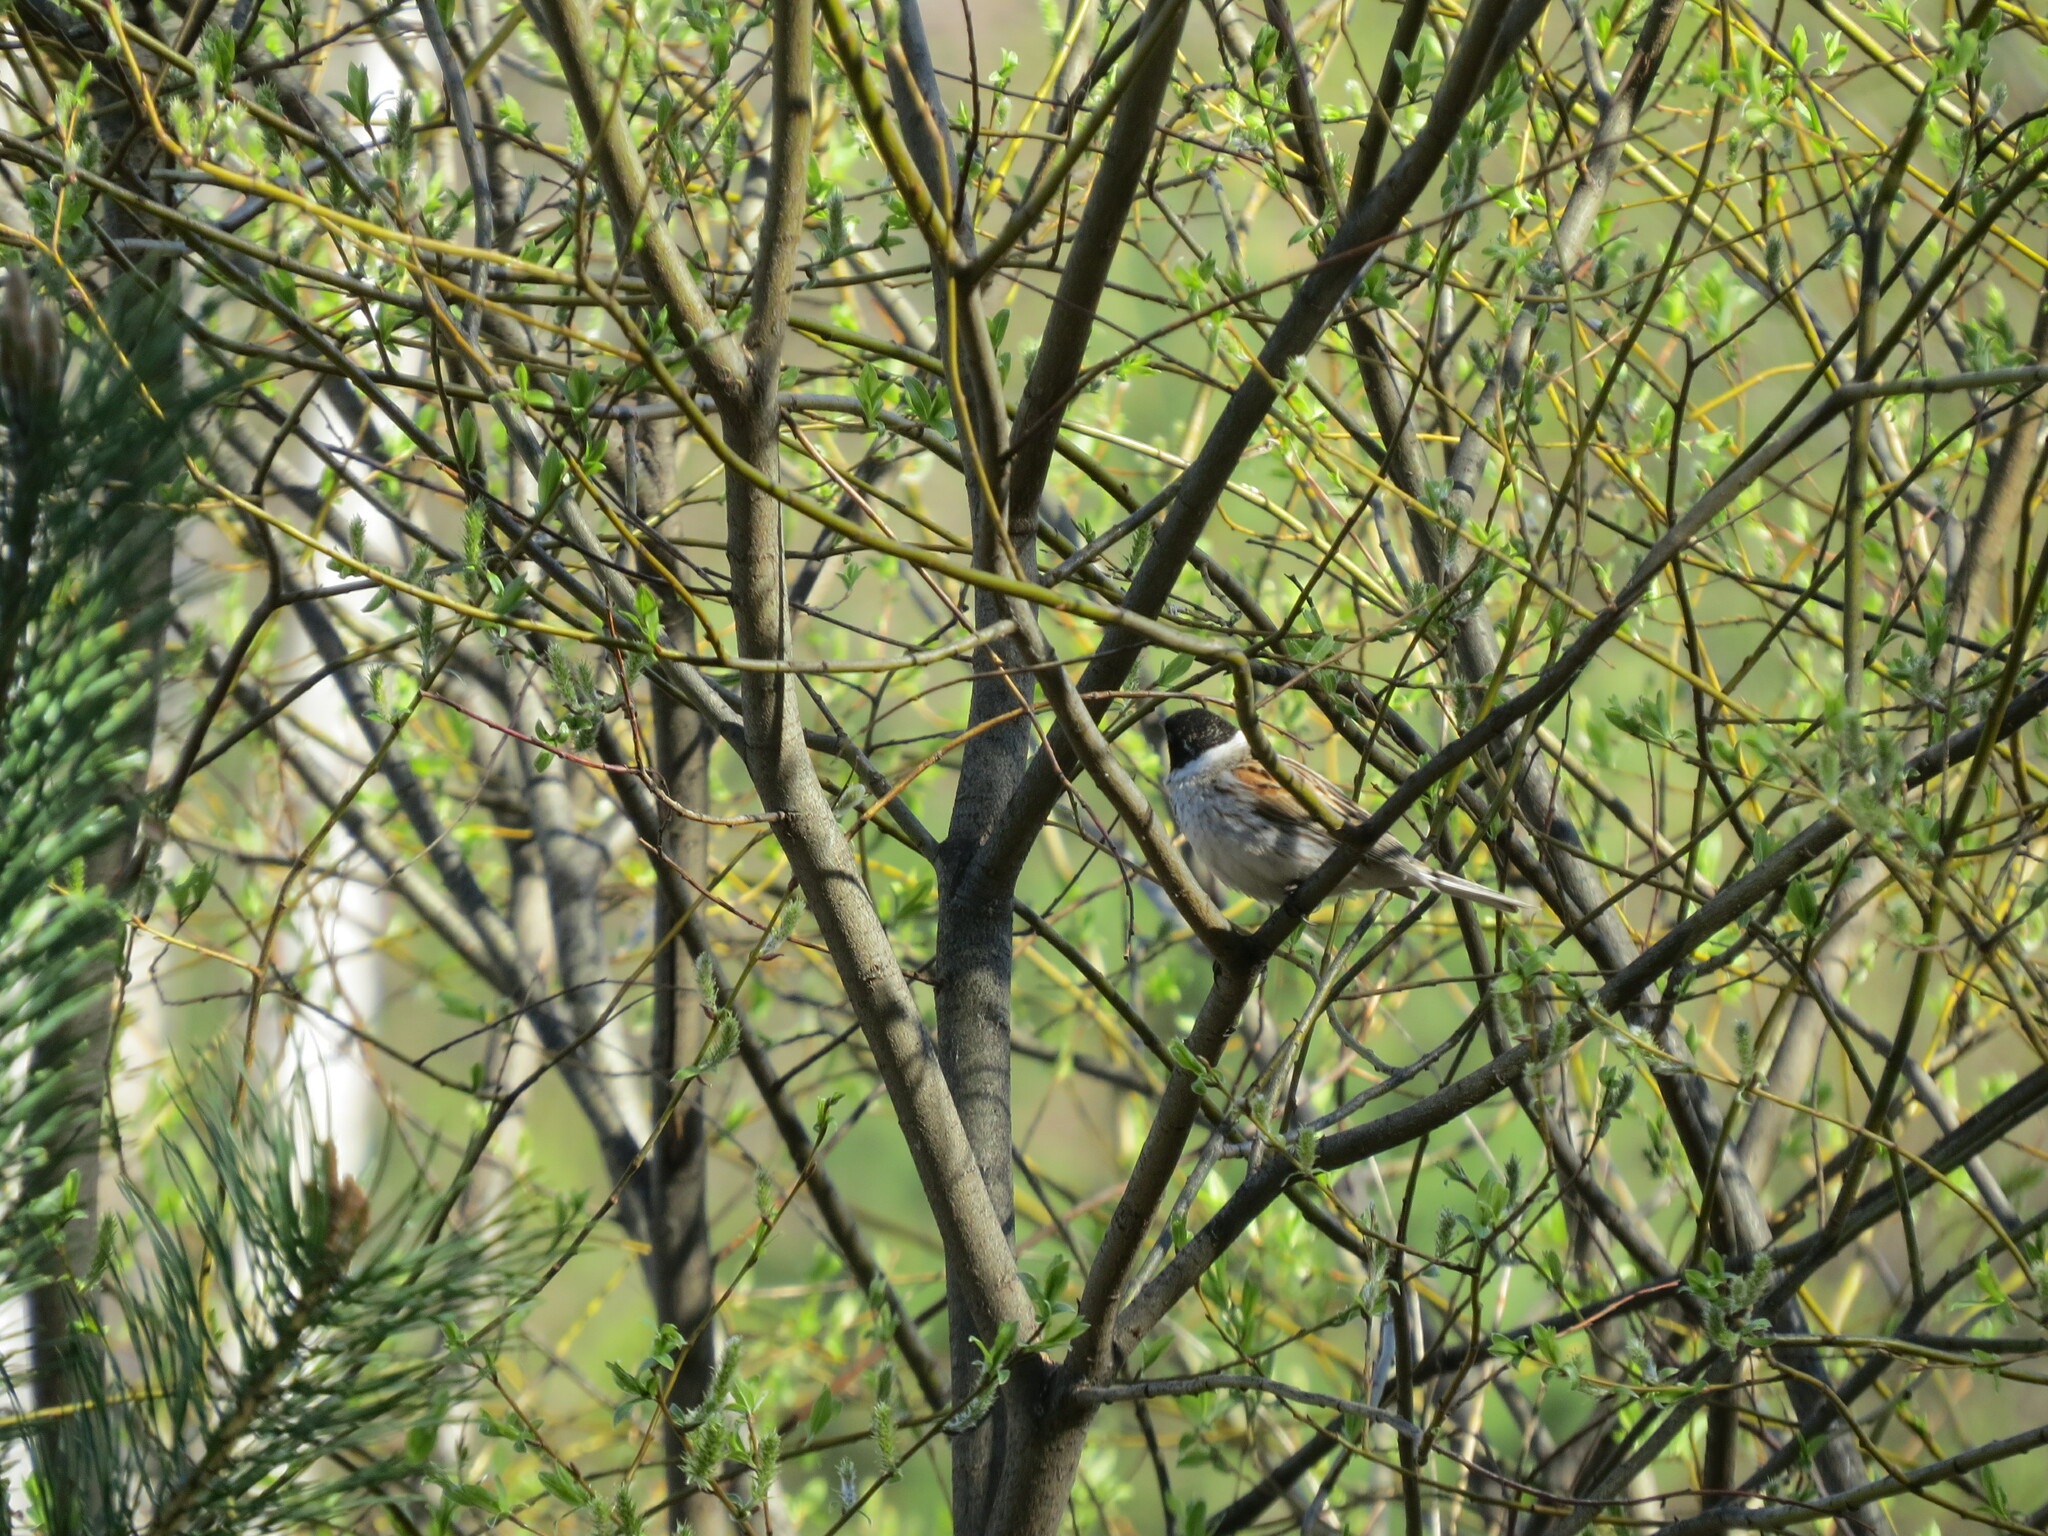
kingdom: Animalia
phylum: Chordata
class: Aves
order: Passeriformes
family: Emberizidae
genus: Emberiza
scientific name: Emberiza schoeniclus
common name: Reed bunting
